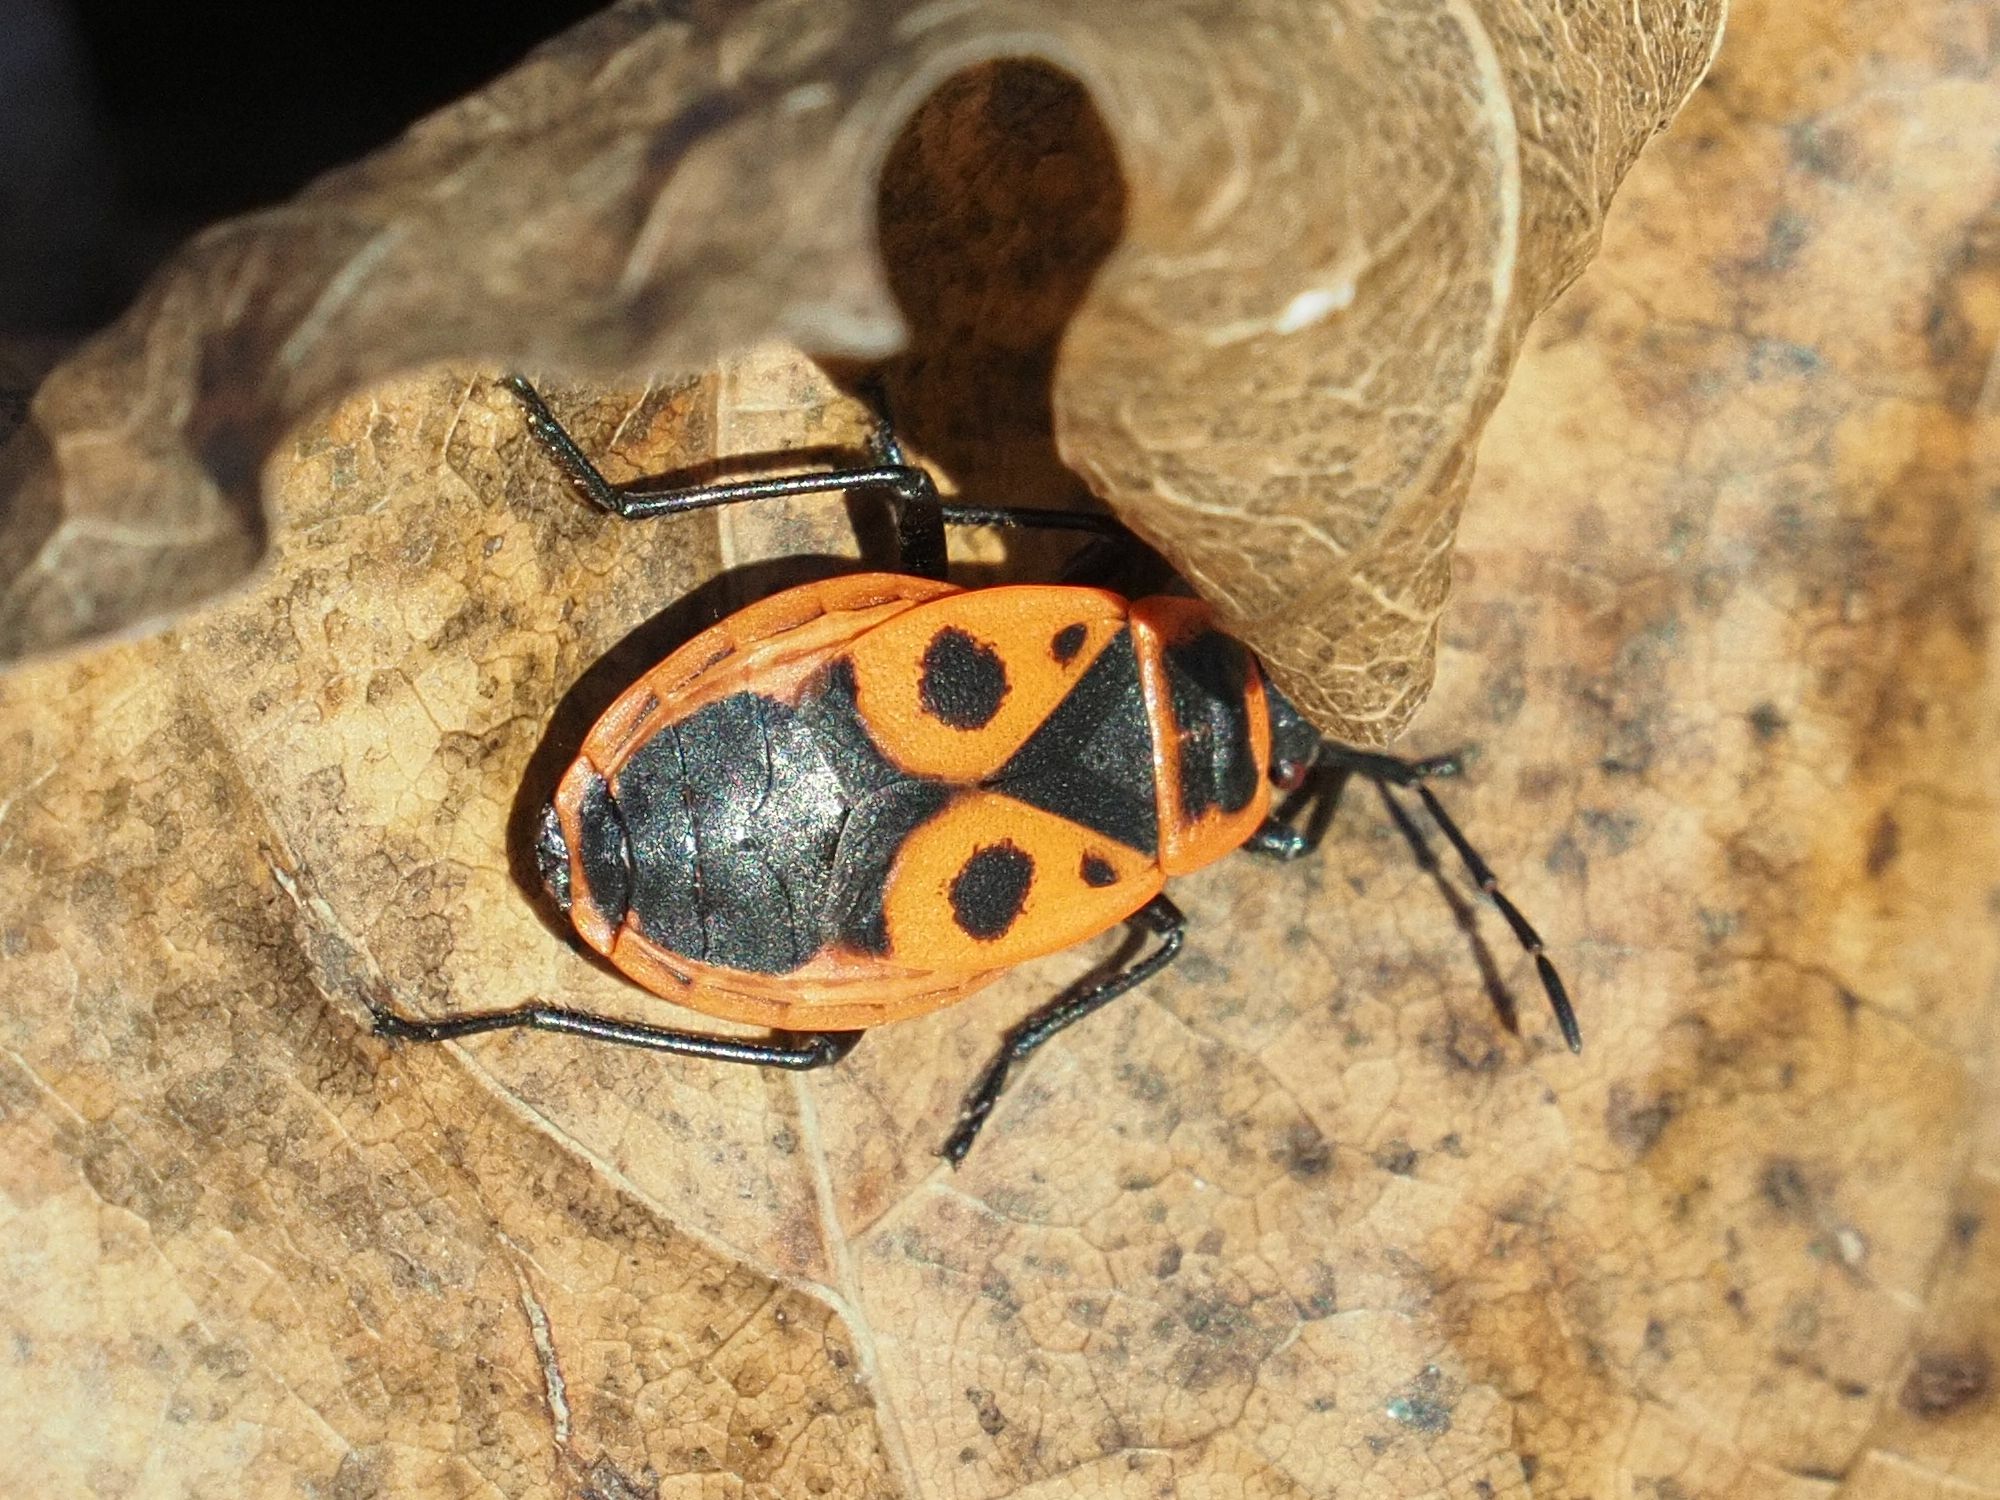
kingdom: Animalia
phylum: Arthropoda
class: Insecta
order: Hemiptera
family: Pyrrhocoridae
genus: Pyrrhocoris
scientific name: Pyrrhocoris apterus
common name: Firebug
